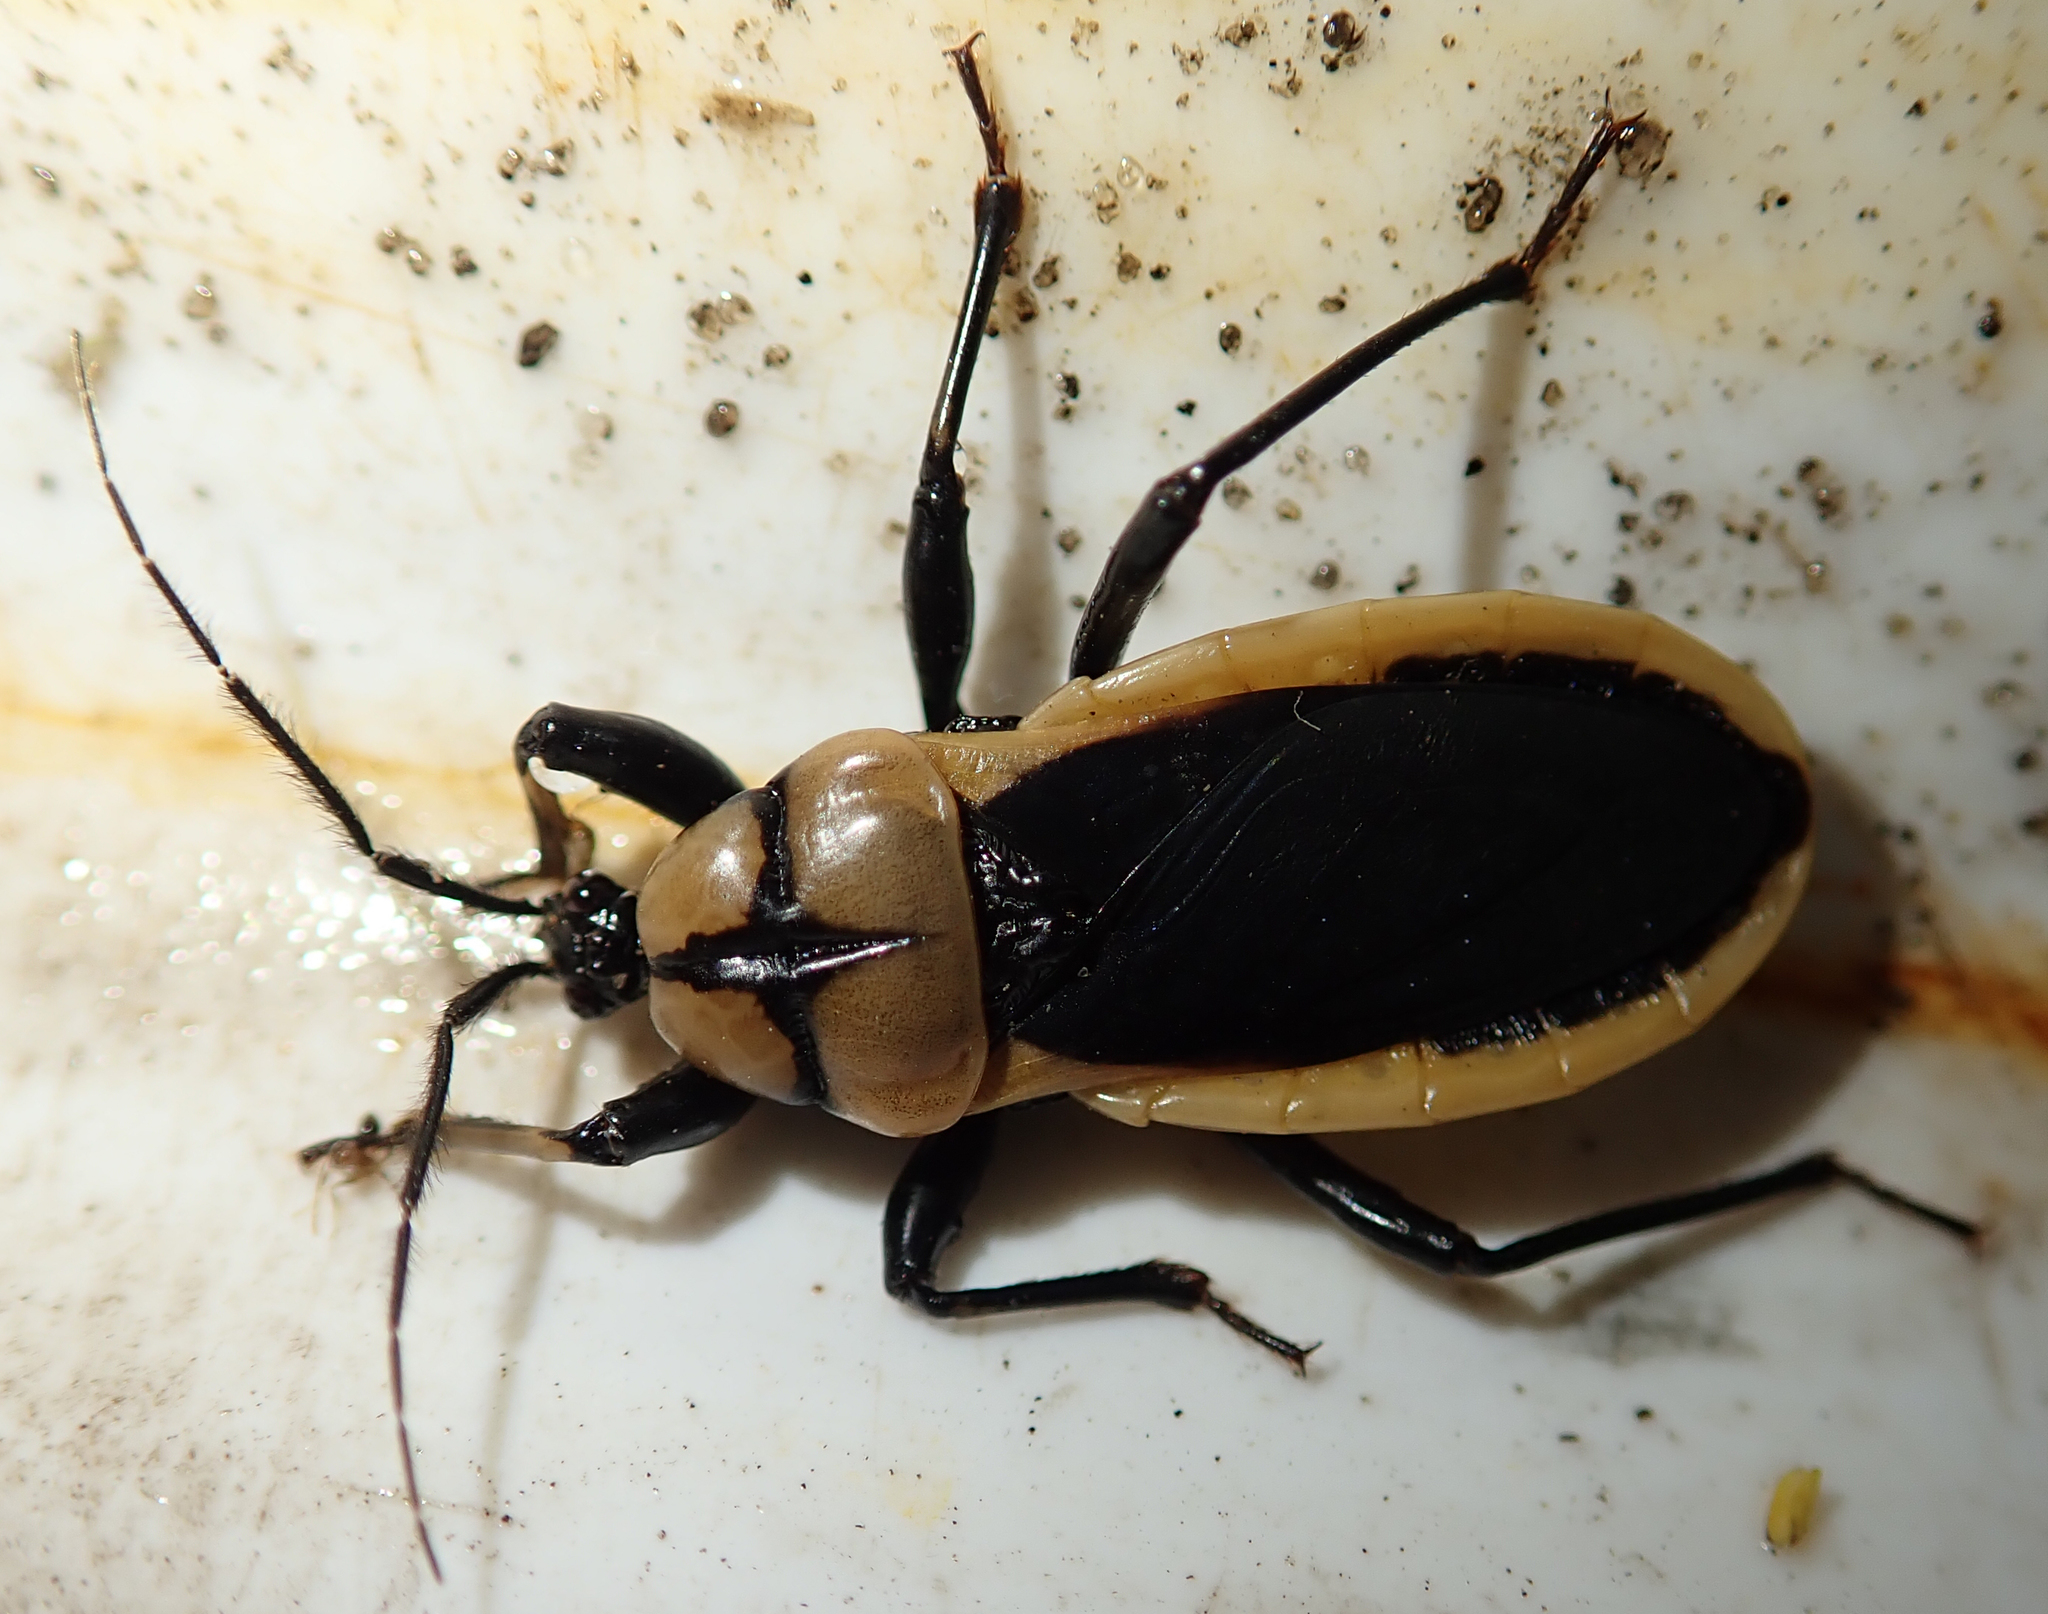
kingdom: Animalia
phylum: Arthropoda
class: Insecta
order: Hemiptera
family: Reduviidae
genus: Ectrichodia
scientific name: Ectrichodia crux
